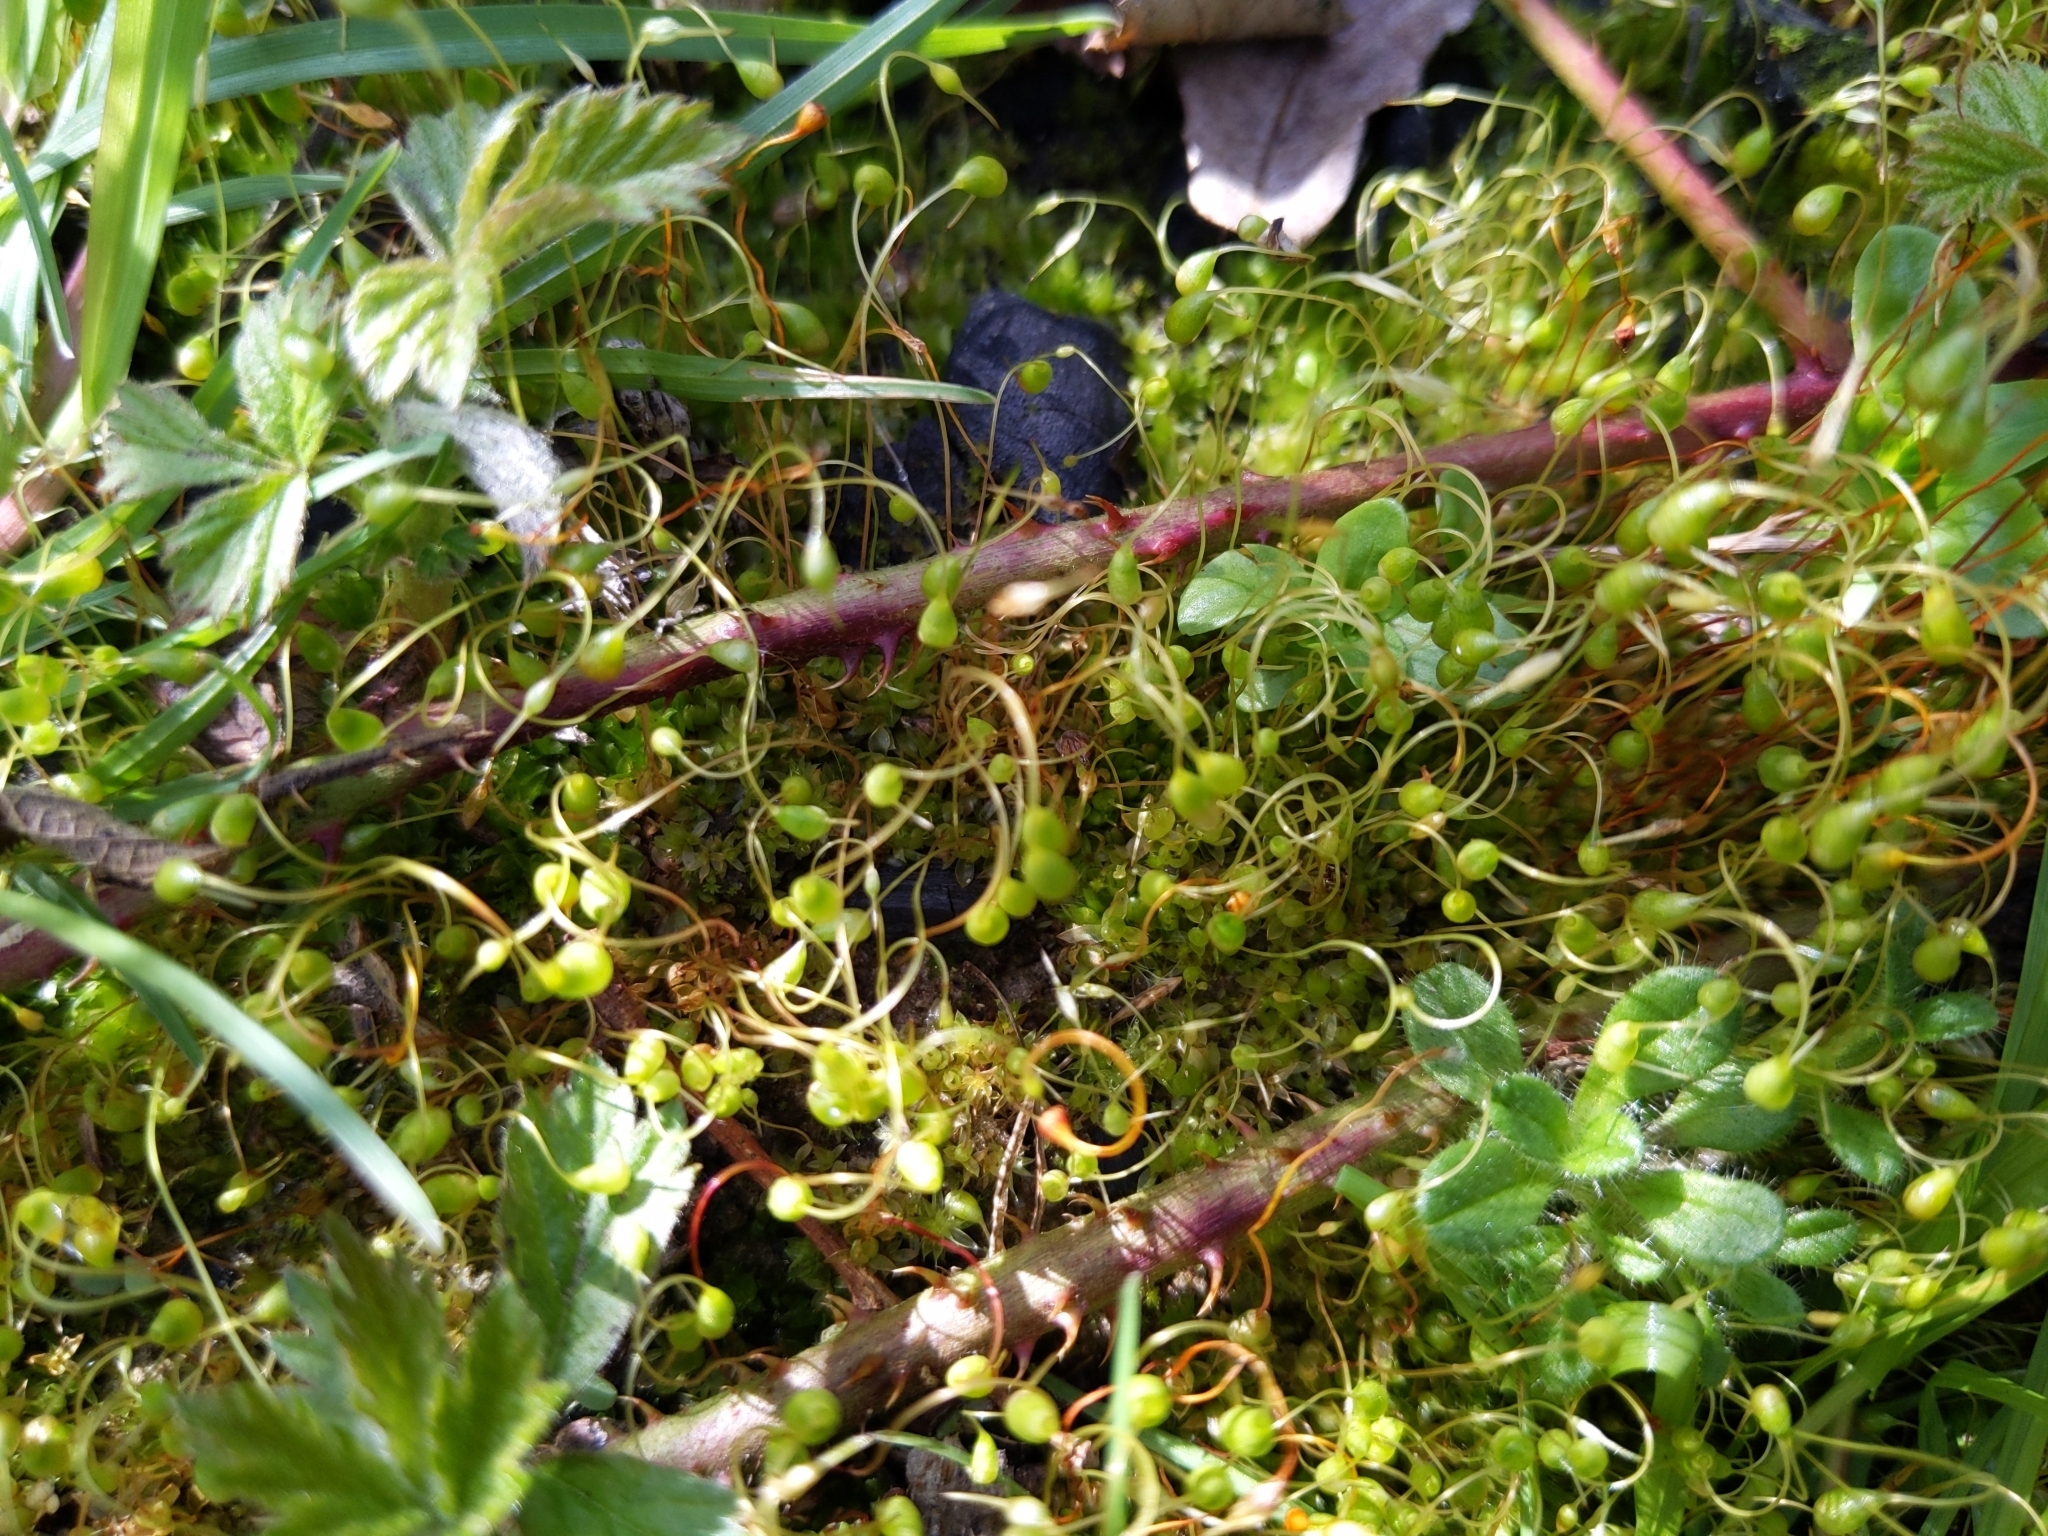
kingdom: Plantae
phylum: Bryophyta
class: Bryopsida
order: Funariales
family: Funariaceae
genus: Funaria
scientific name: Funaria hygrometrica
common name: Common cord moss
